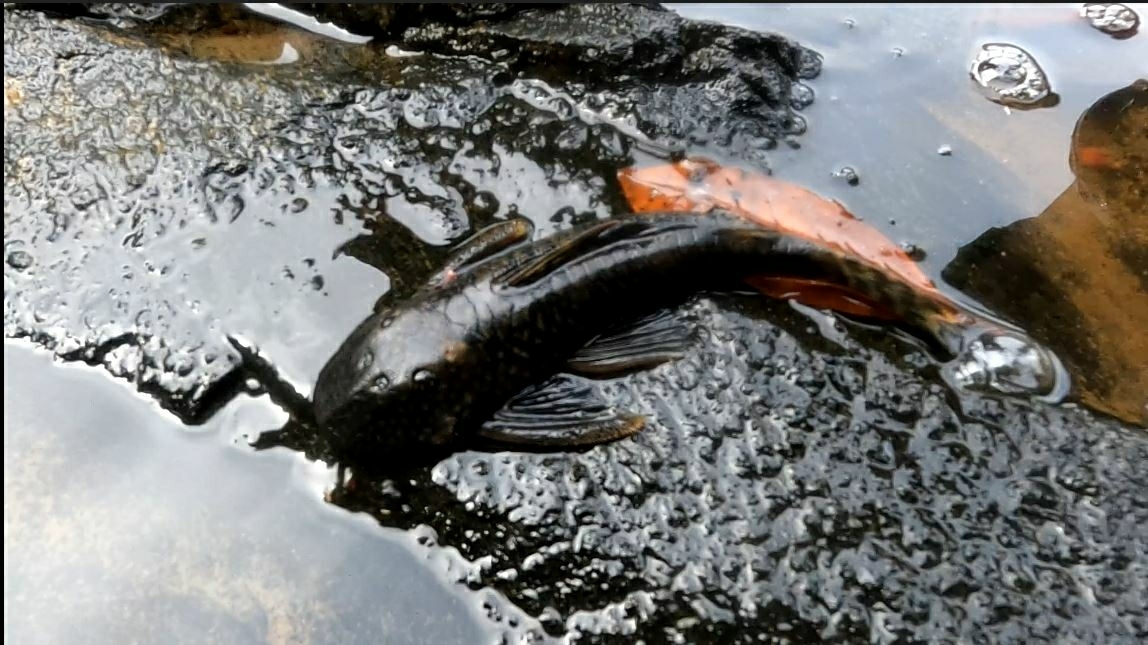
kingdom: Animalia
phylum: Chordata
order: Siluriformes
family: Loricariidae
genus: Guyanancistrus
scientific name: Guyanancistrus brevispinis
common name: Suckermouth catfish
